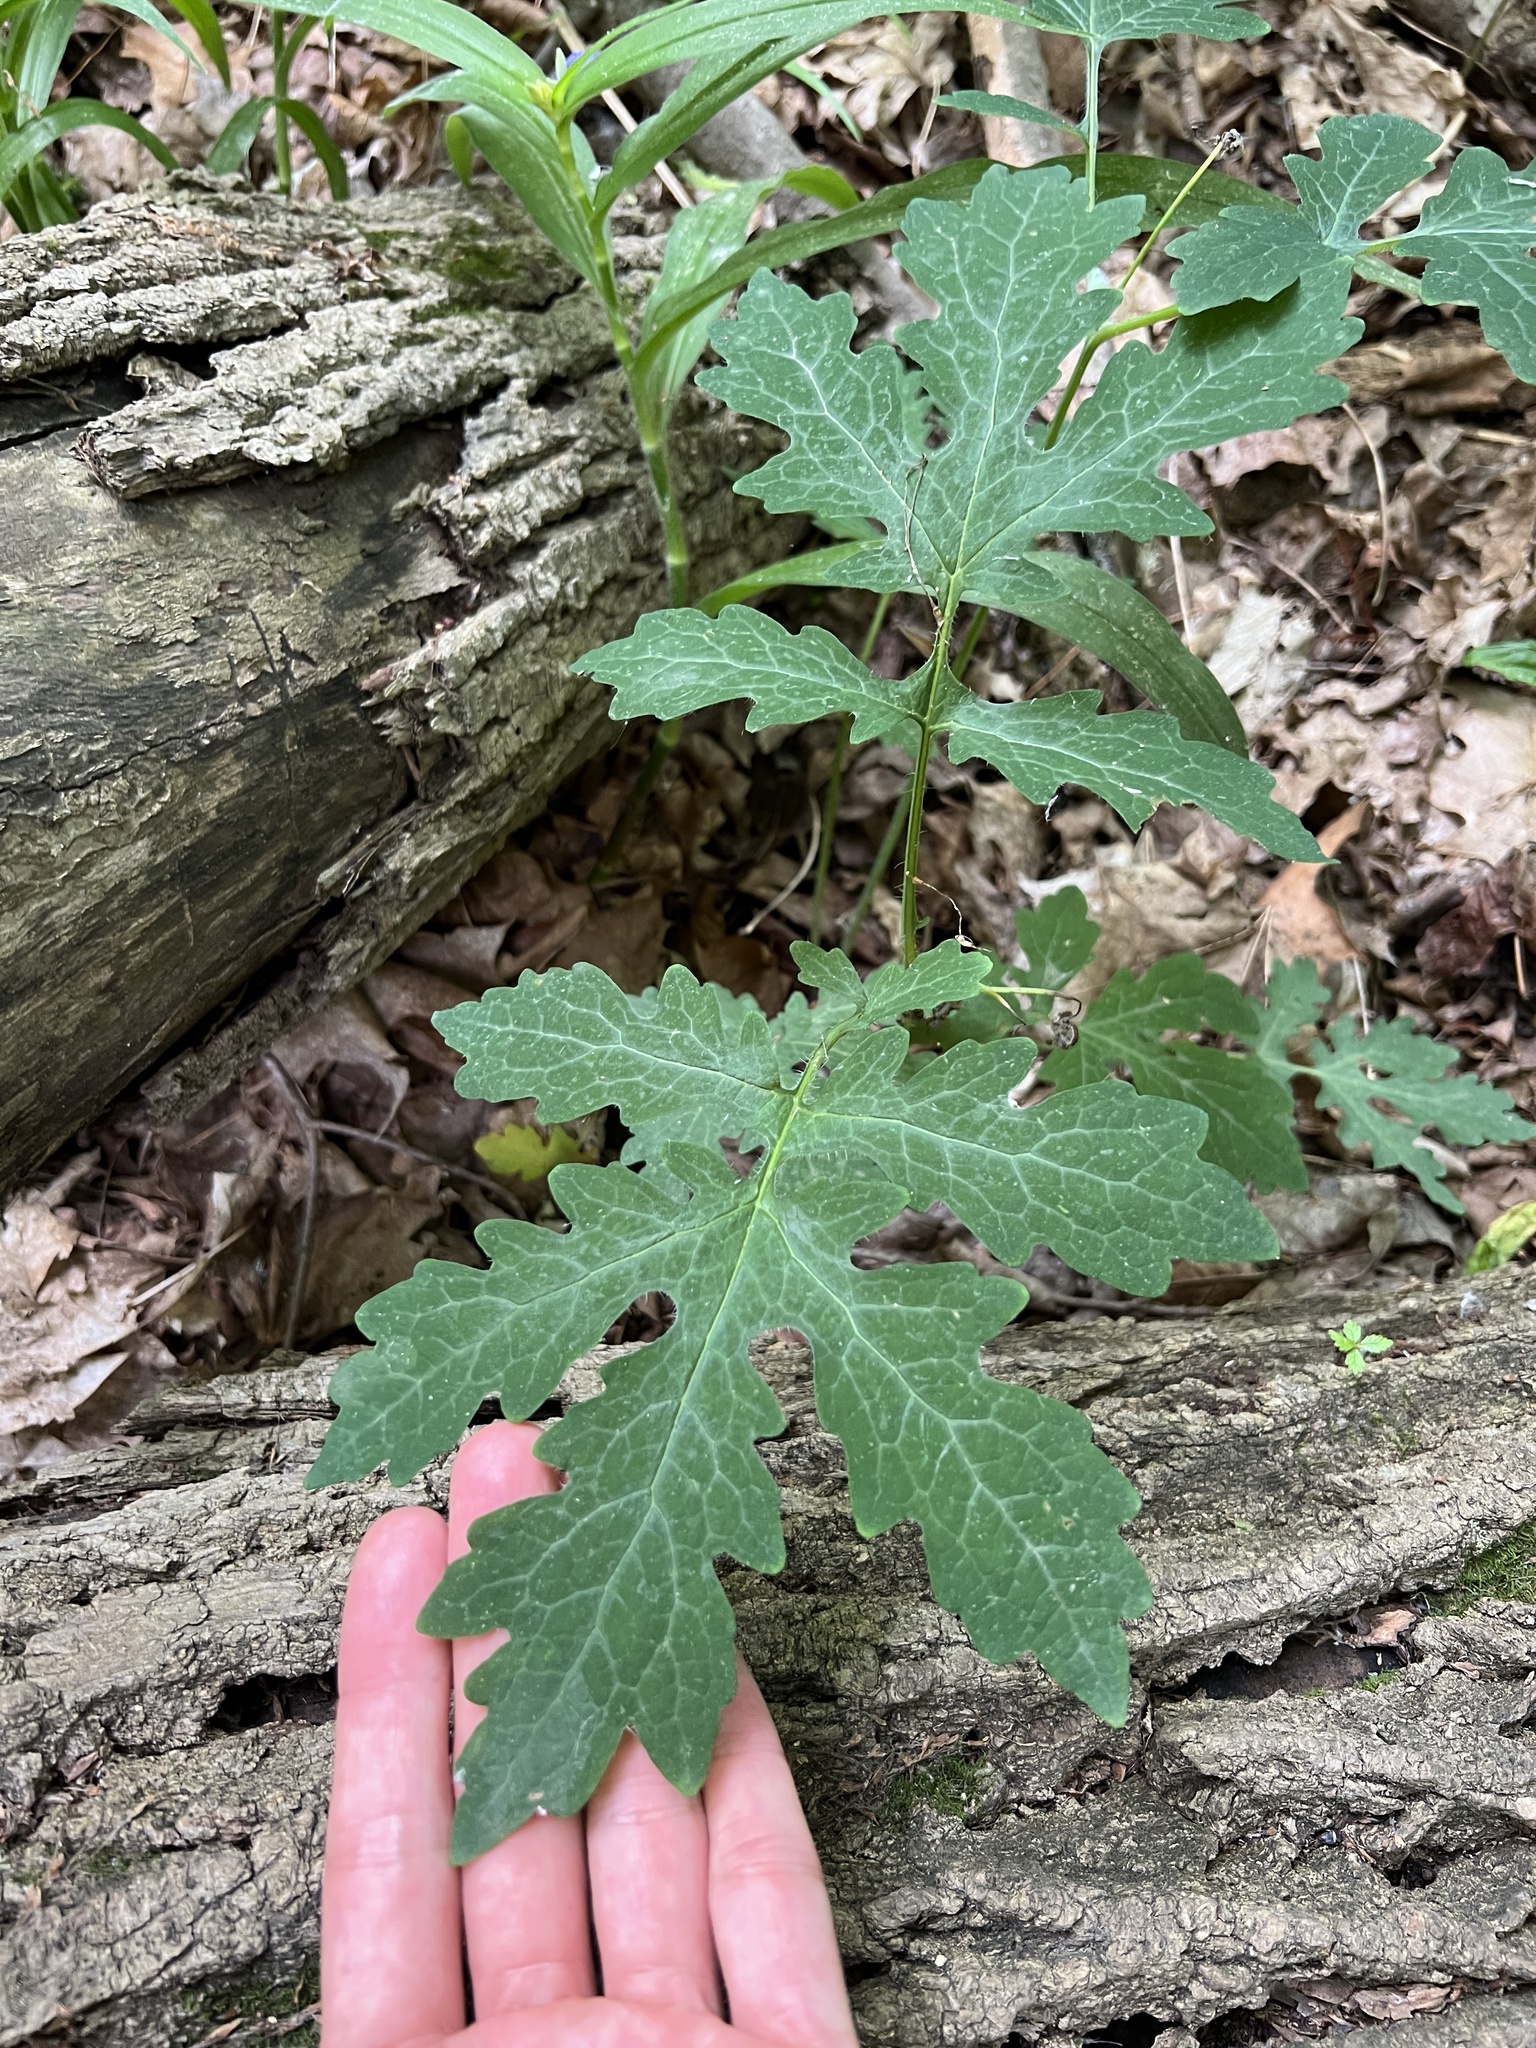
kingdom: Plantae
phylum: Tracheophyta
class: Magnoliopsida
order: Ranunculales
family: Papaveraceae
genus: Stylophorum
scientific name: Stylophorum diphyllum
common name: Celandine poppy
